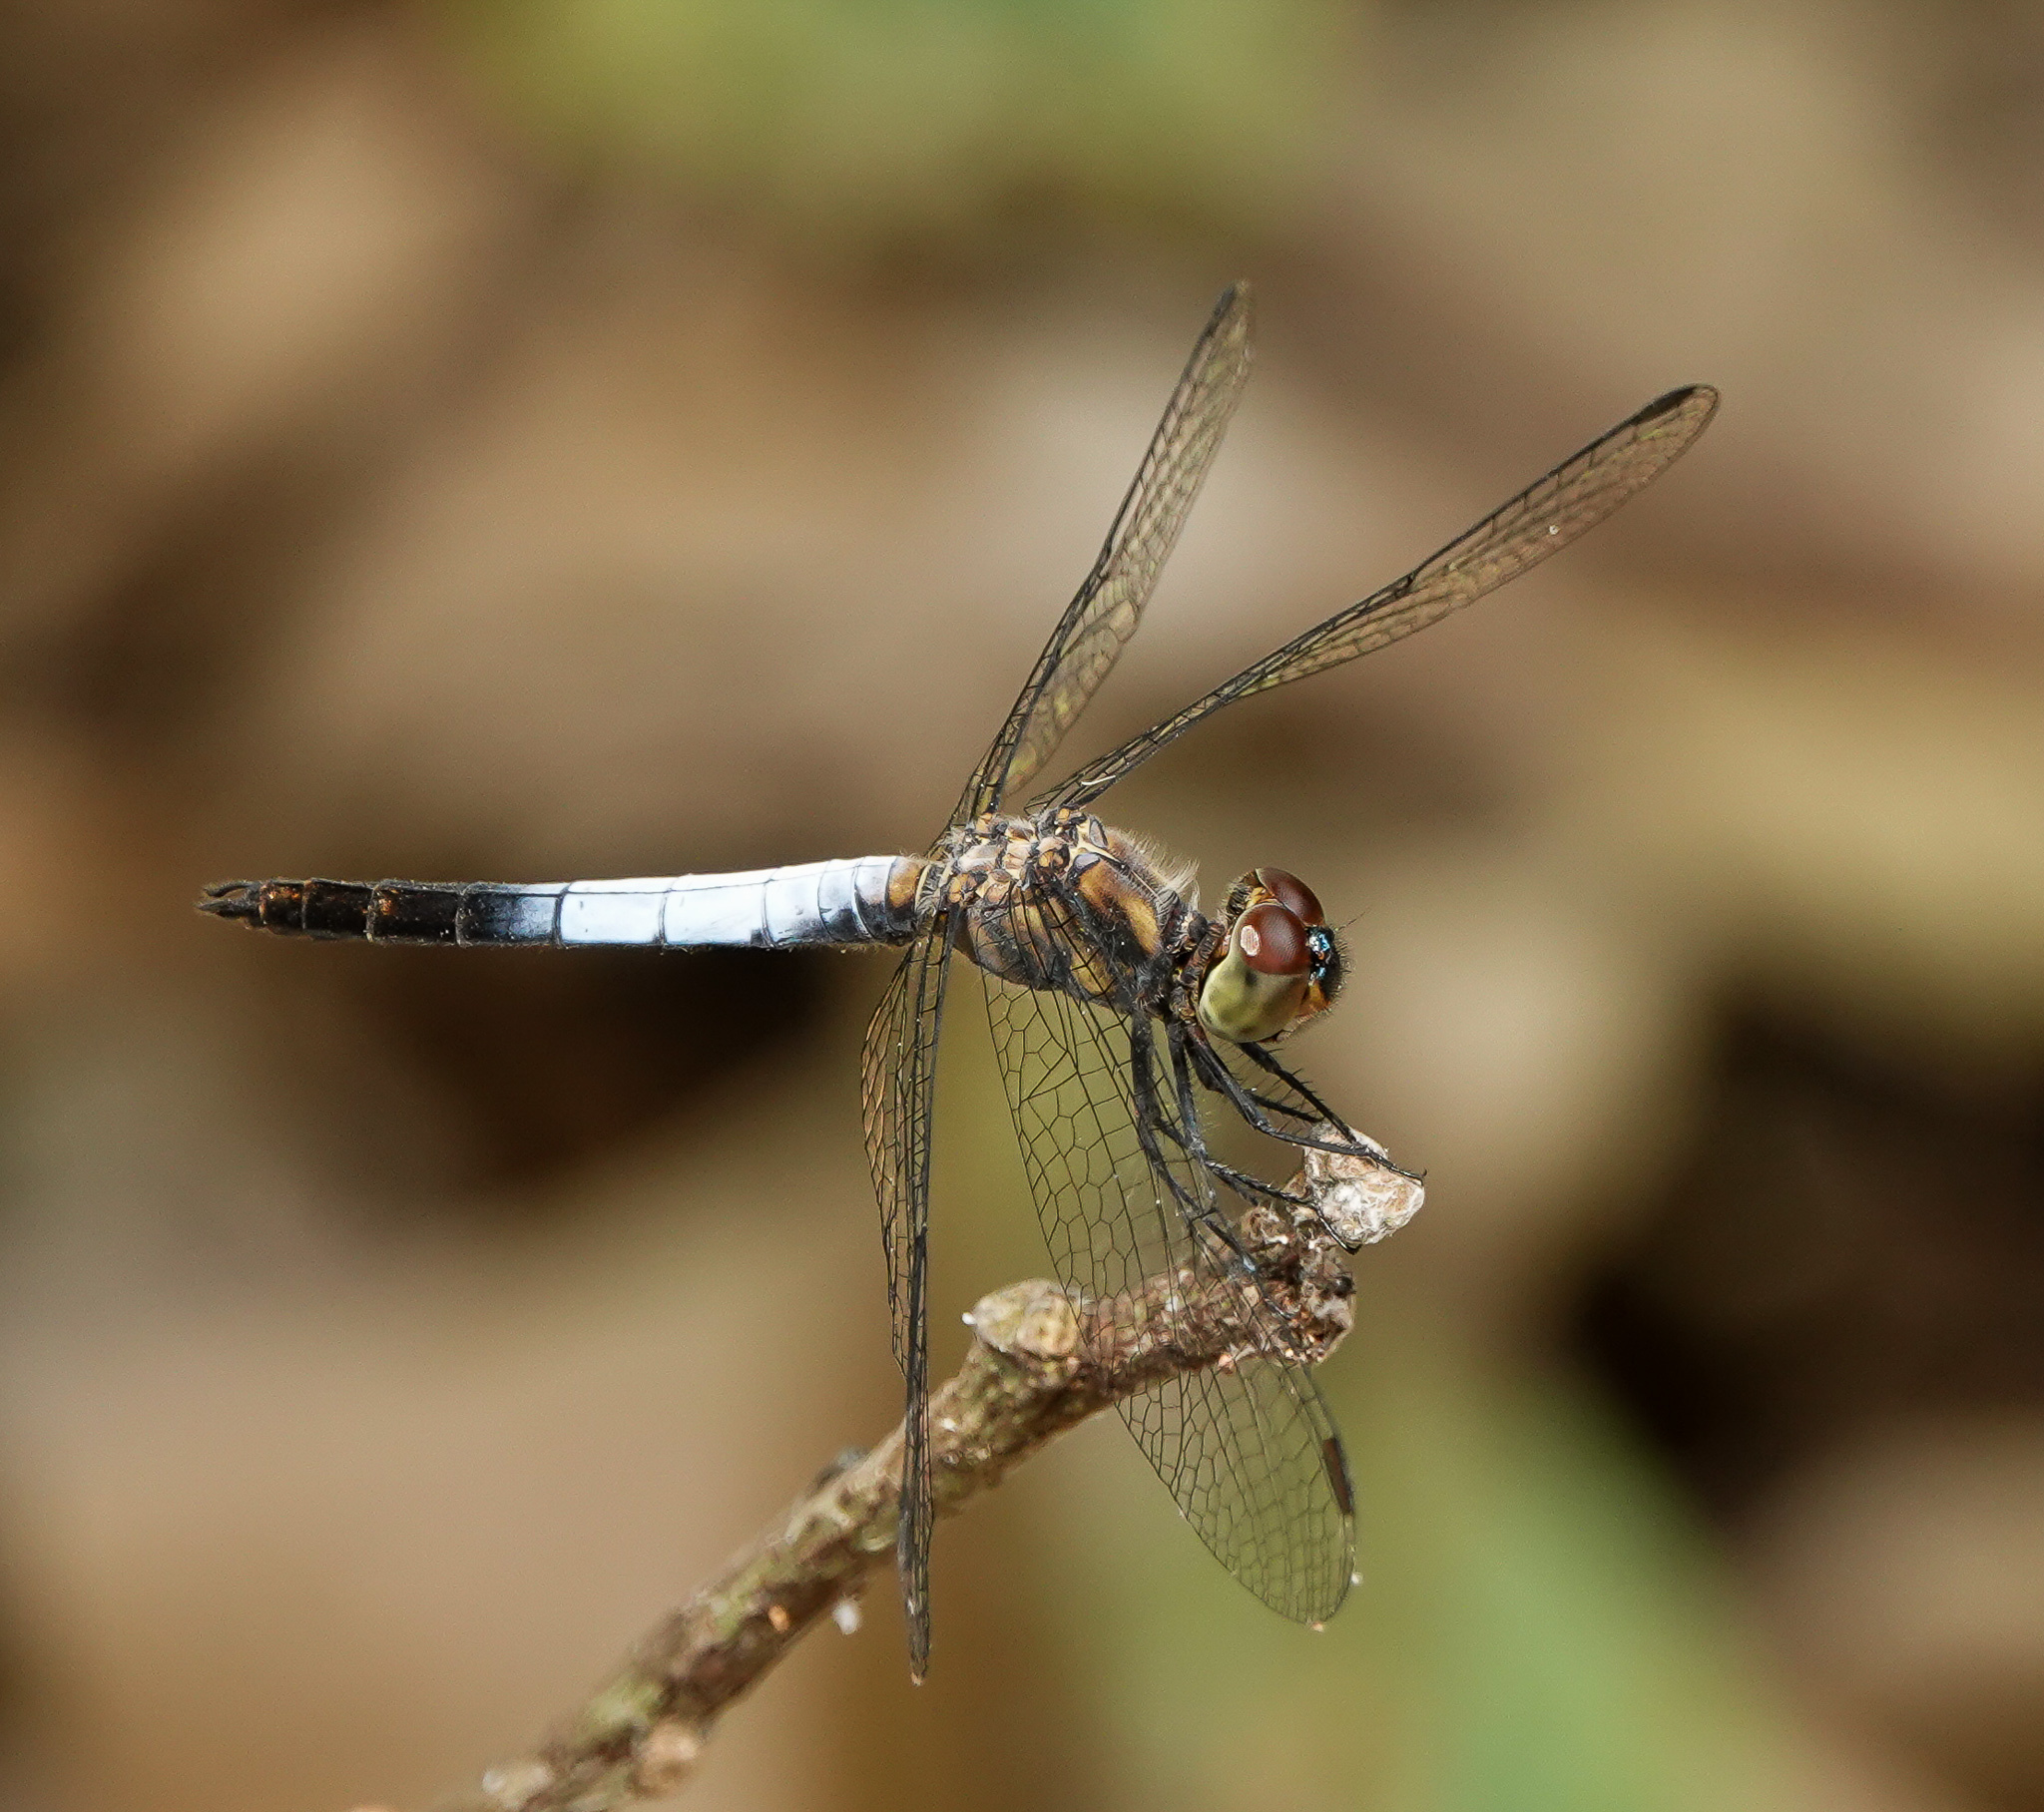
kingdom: Animalia
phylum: Arthropoda
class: Insecta
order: Odonata
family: Libellulidae
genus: Brachydiplax
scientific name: Brachydiplax farinosa
